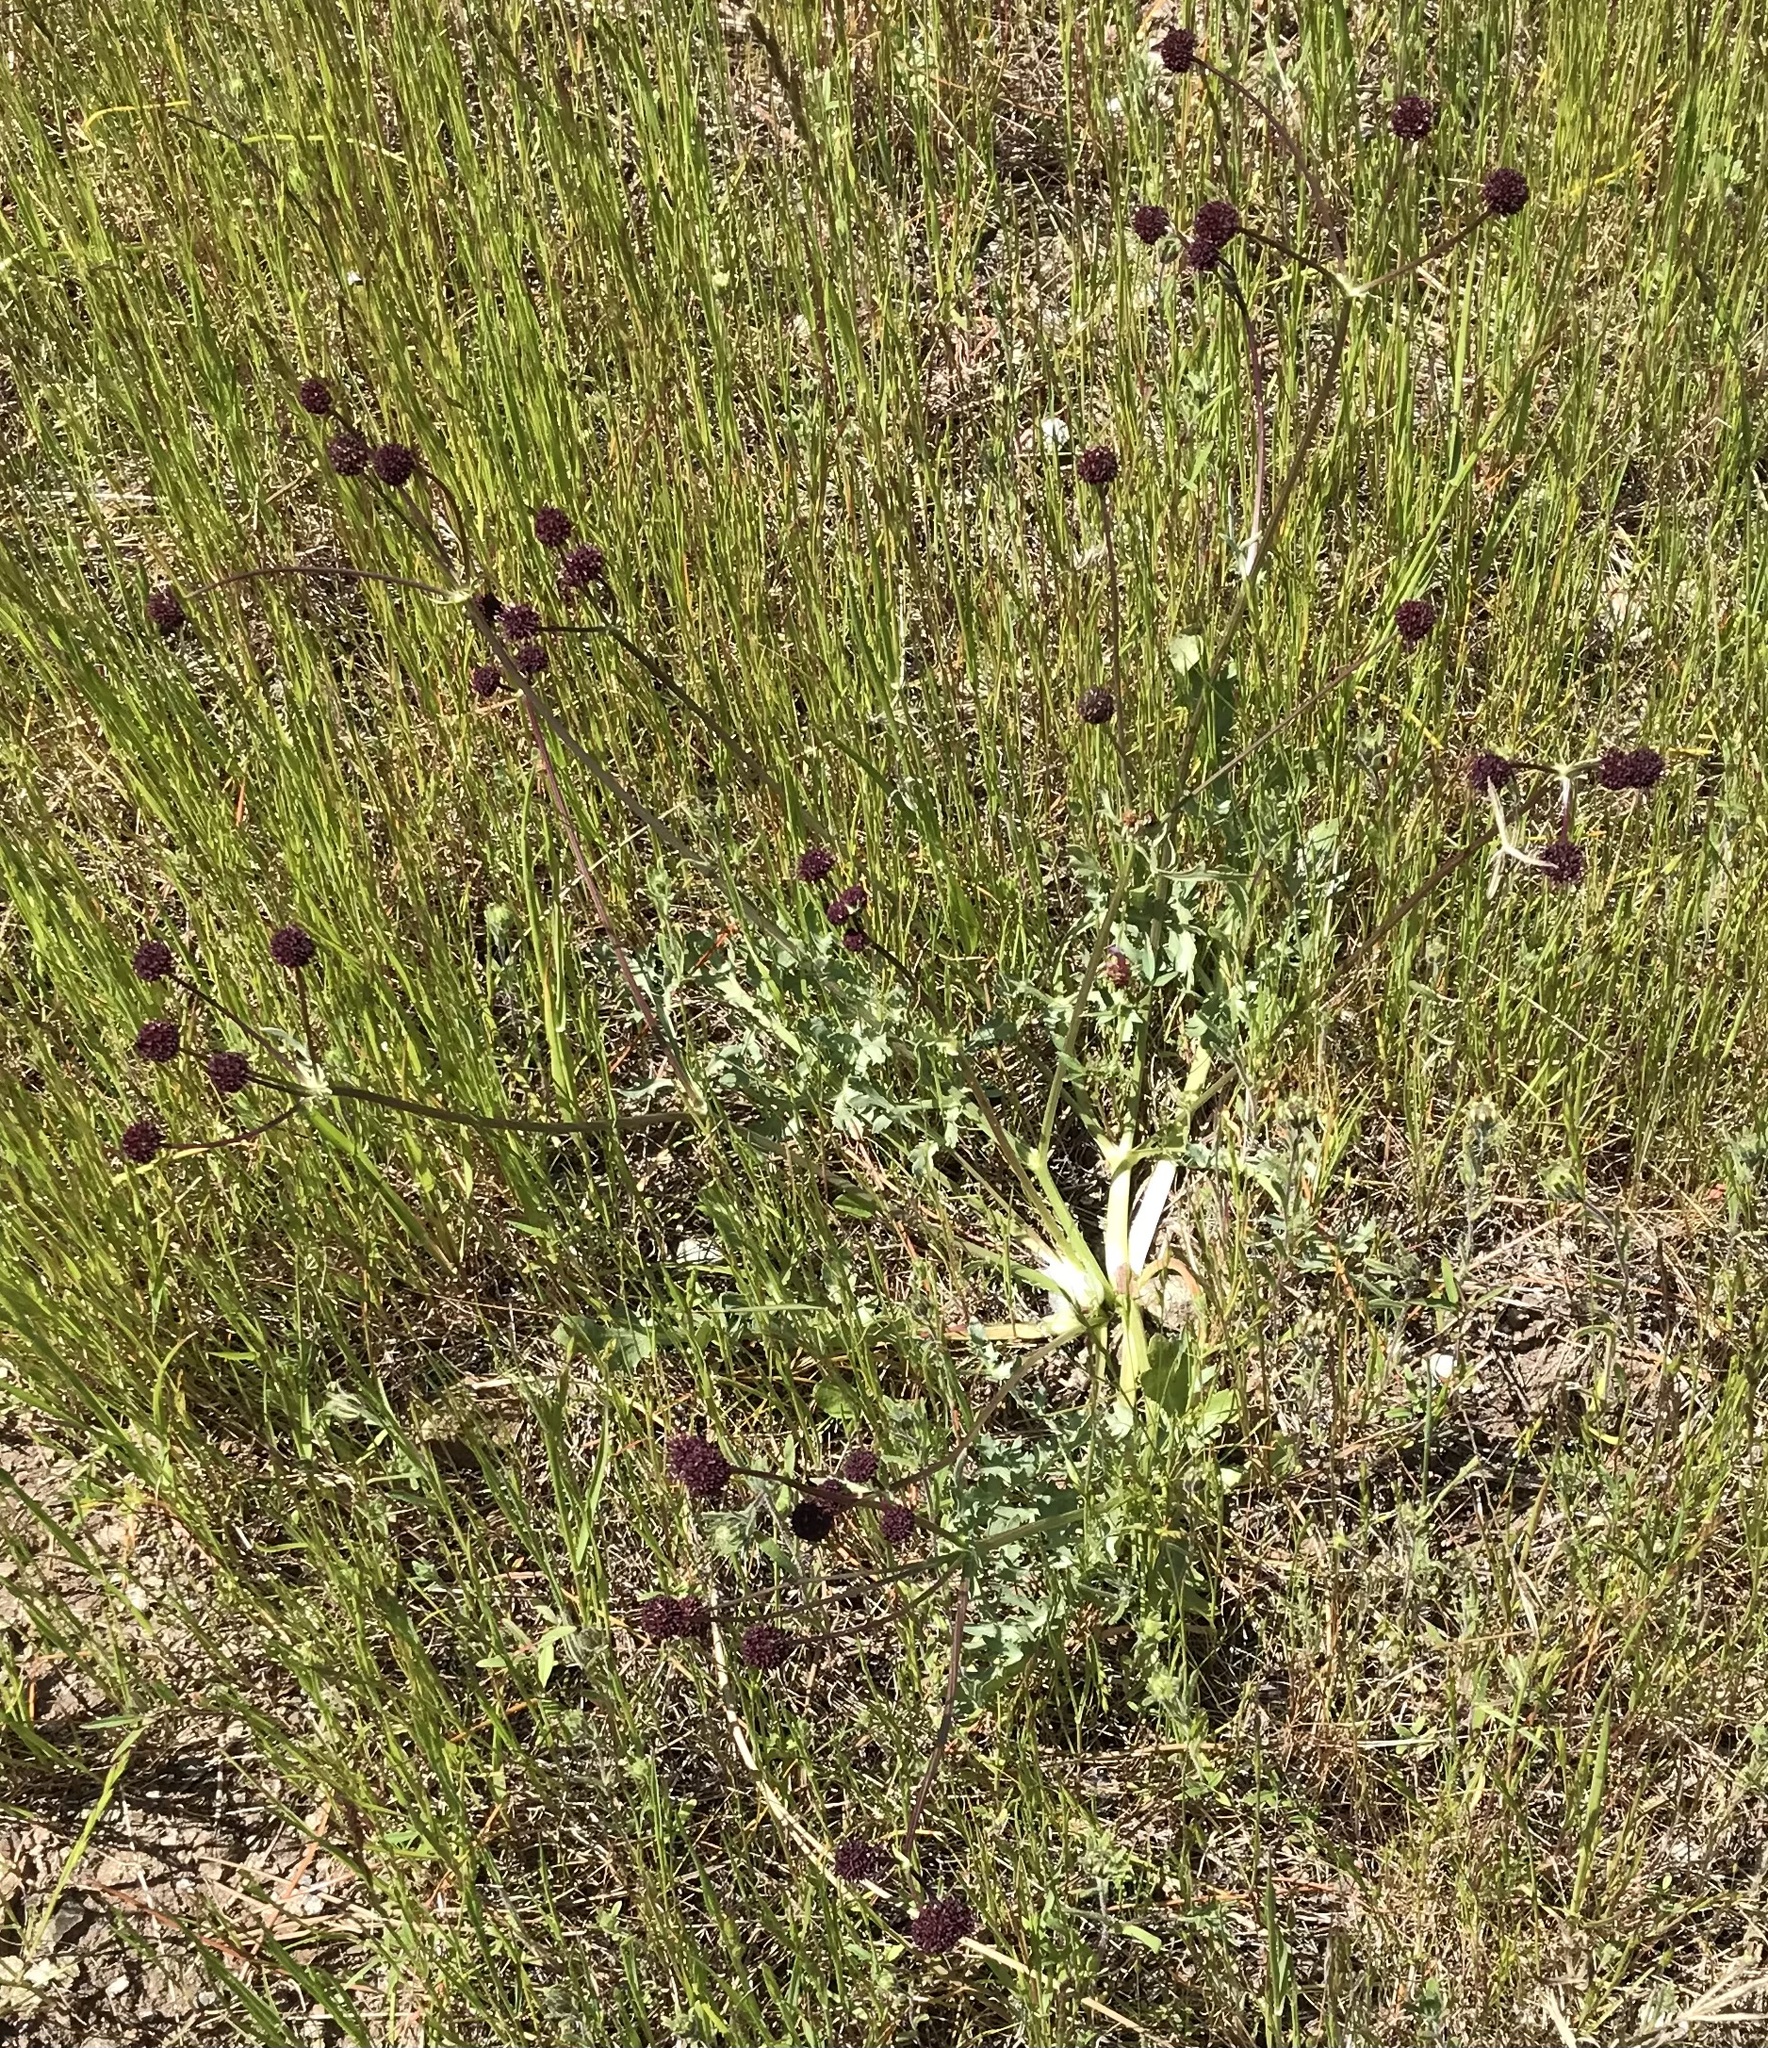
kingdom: Plantae
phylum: Tracheophyta
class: Magnoliopsida
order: Apiales
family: Apiaceae
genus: Sanicula
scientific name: Sanicula bipinnatifida
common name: Shoe-buttons
